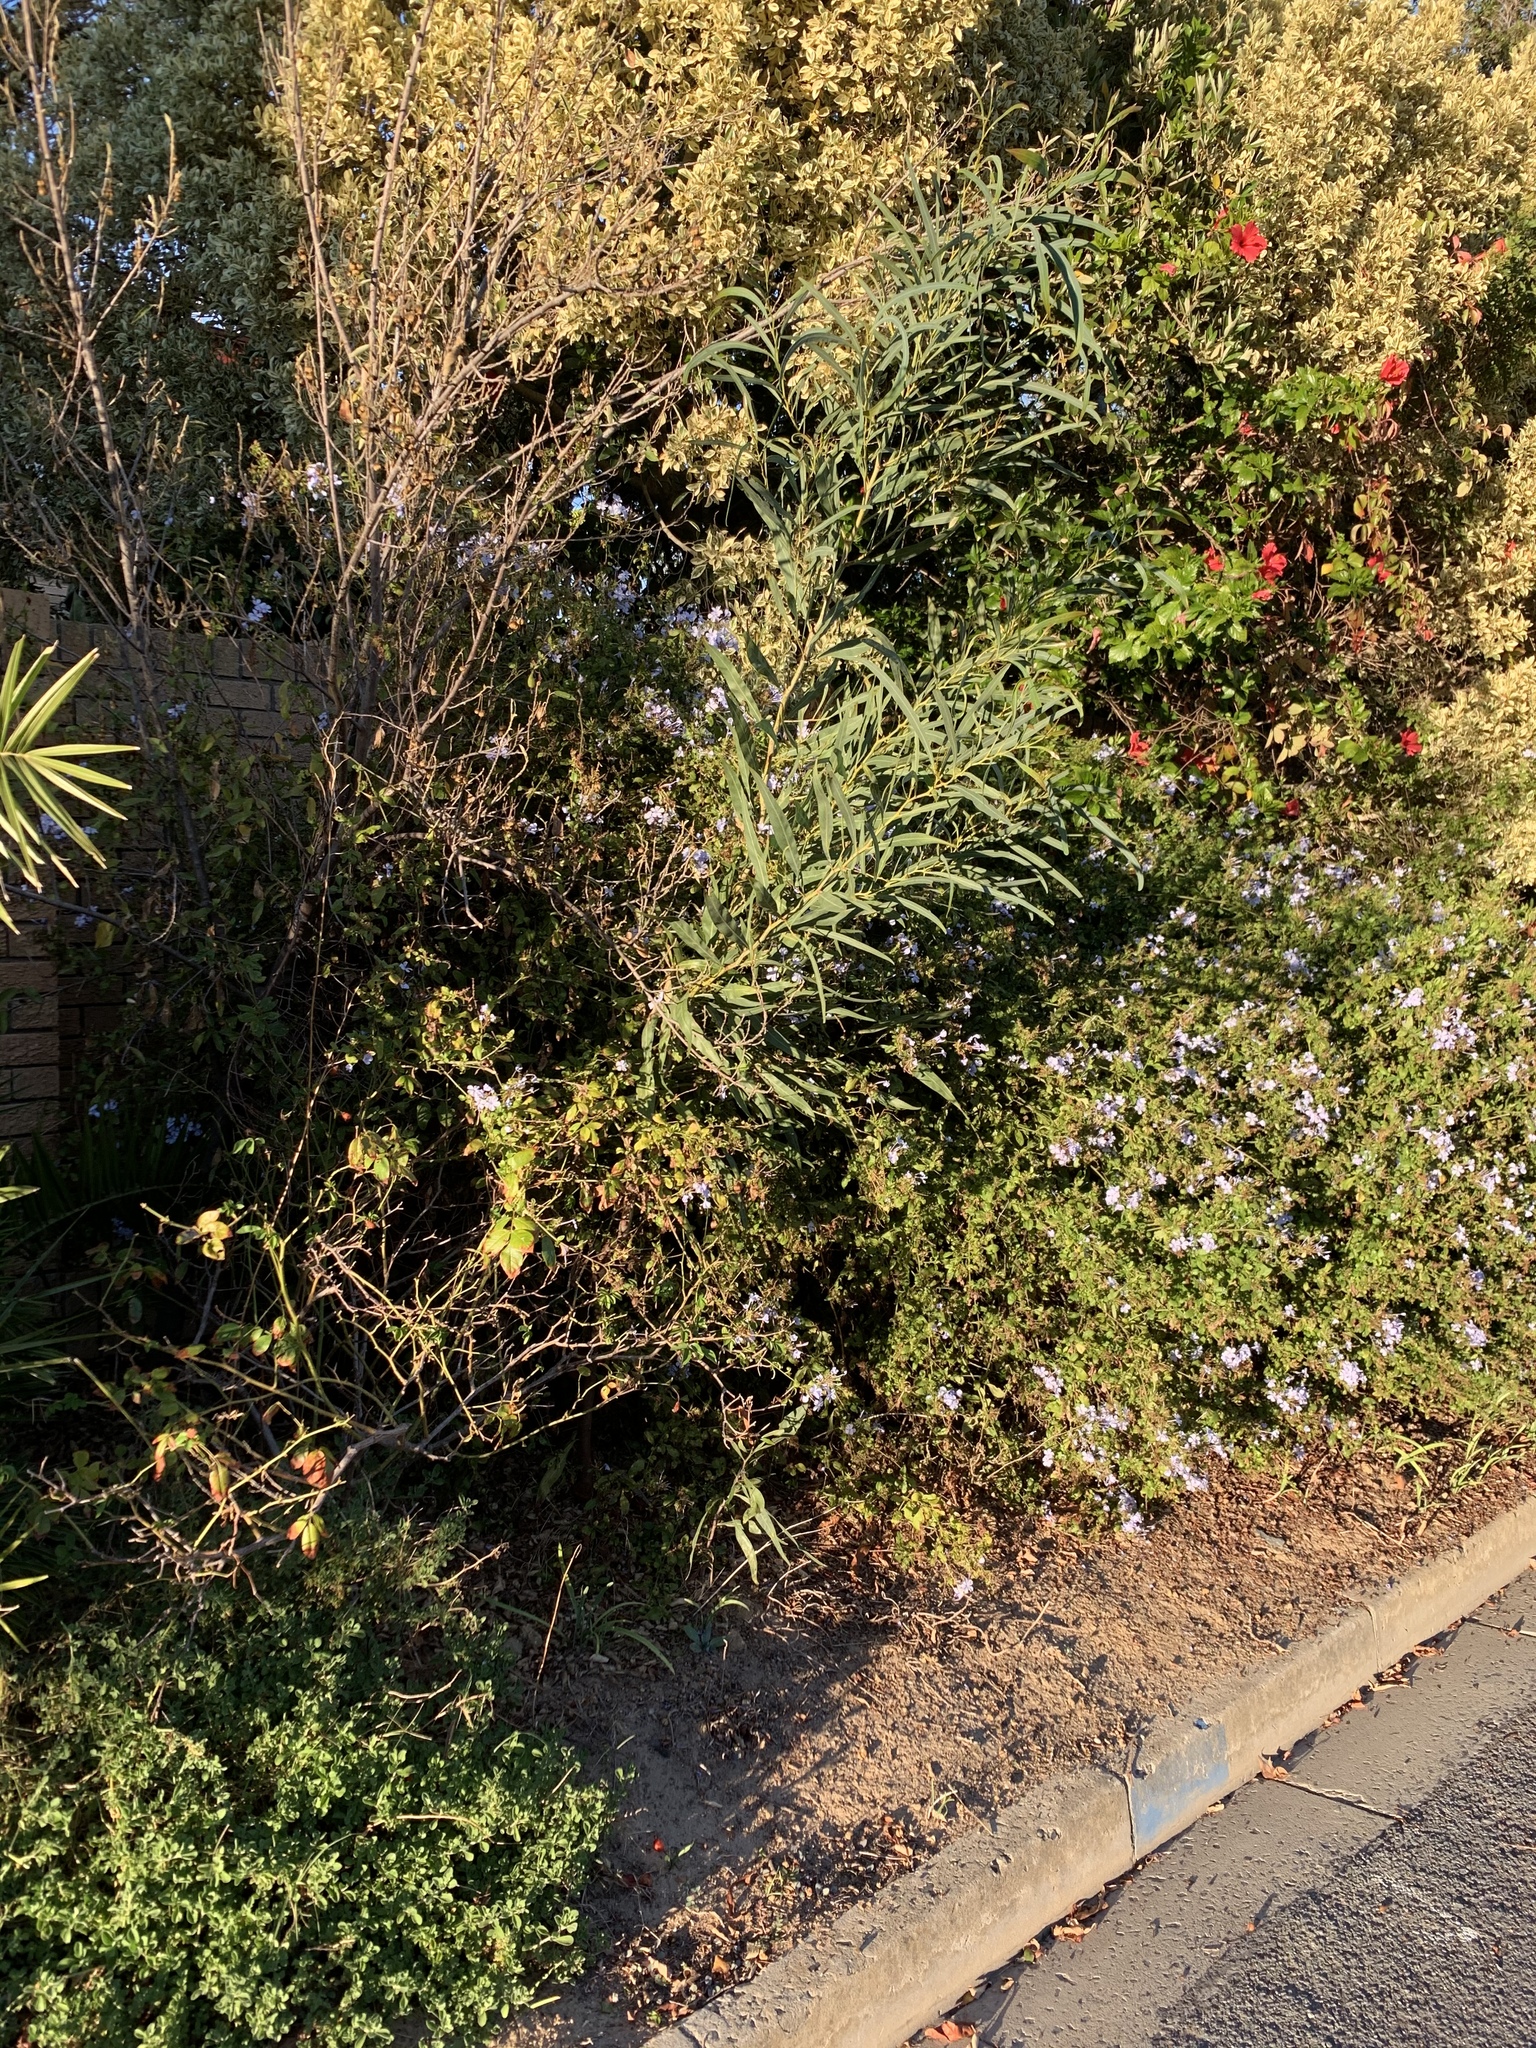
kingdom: Plantae
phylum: Tracheophyta
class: Magnoliopsida
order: Fabales
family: Fabaceae
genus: Acacia
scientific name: Acacia saligna
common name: Orange wattle
